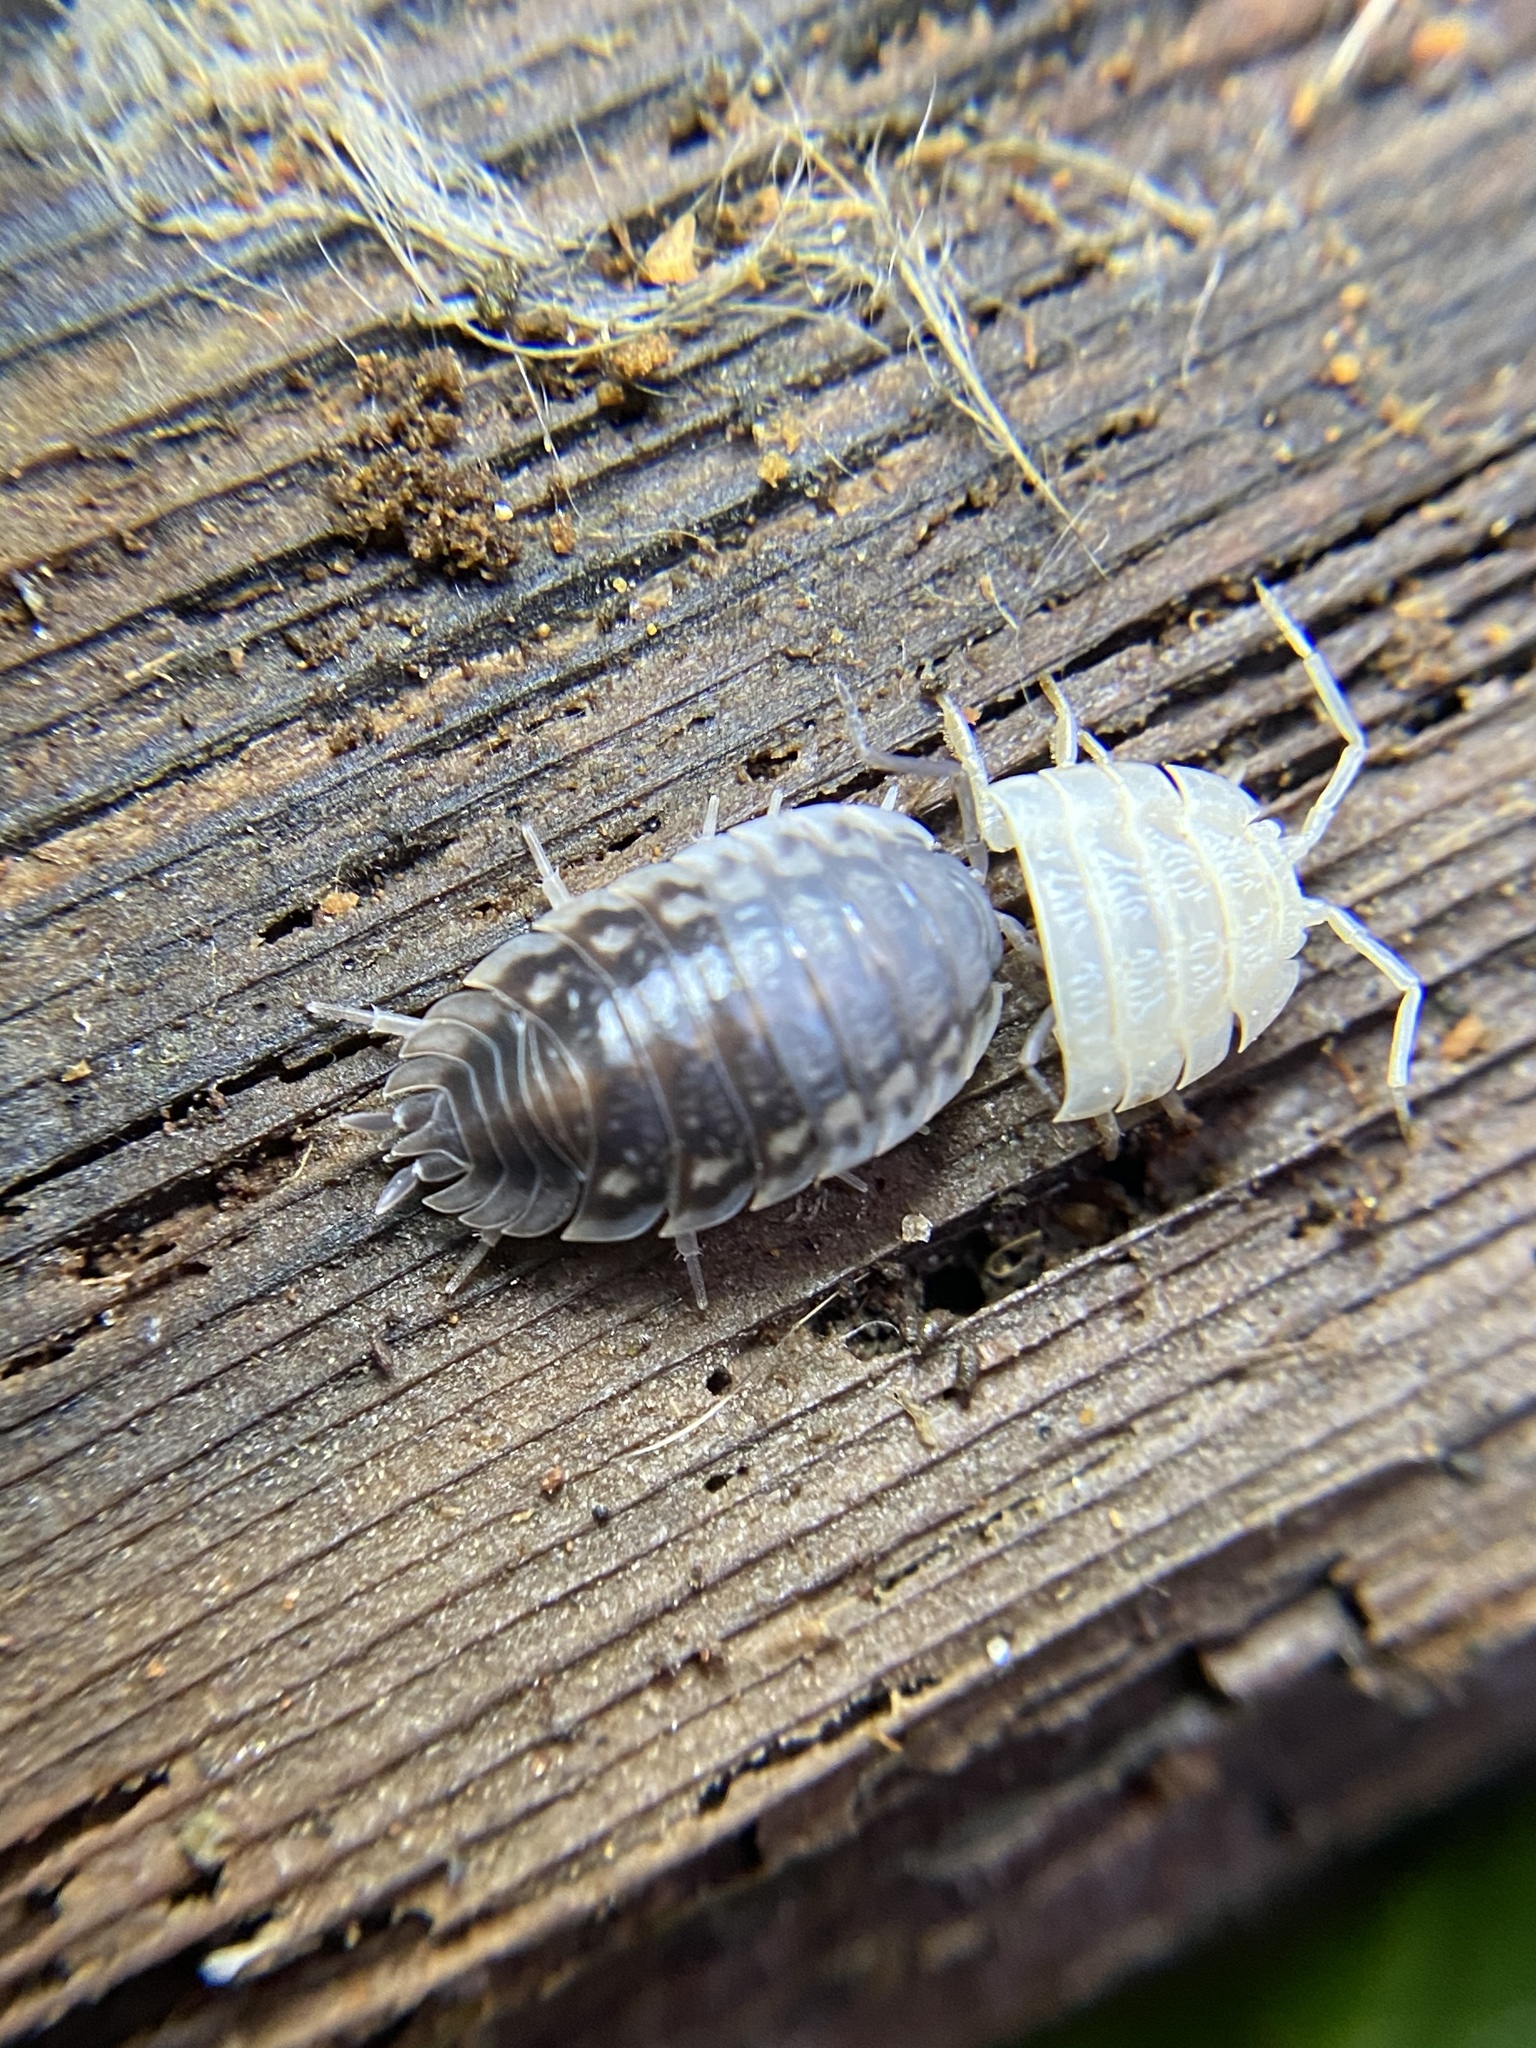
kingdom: Animalia
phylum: Arthropoda
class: Malacostraca
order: Isopoda
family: Oniscidae
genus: Oniscus
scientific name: Oniscus asellus
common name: Common shiny woodlouse
